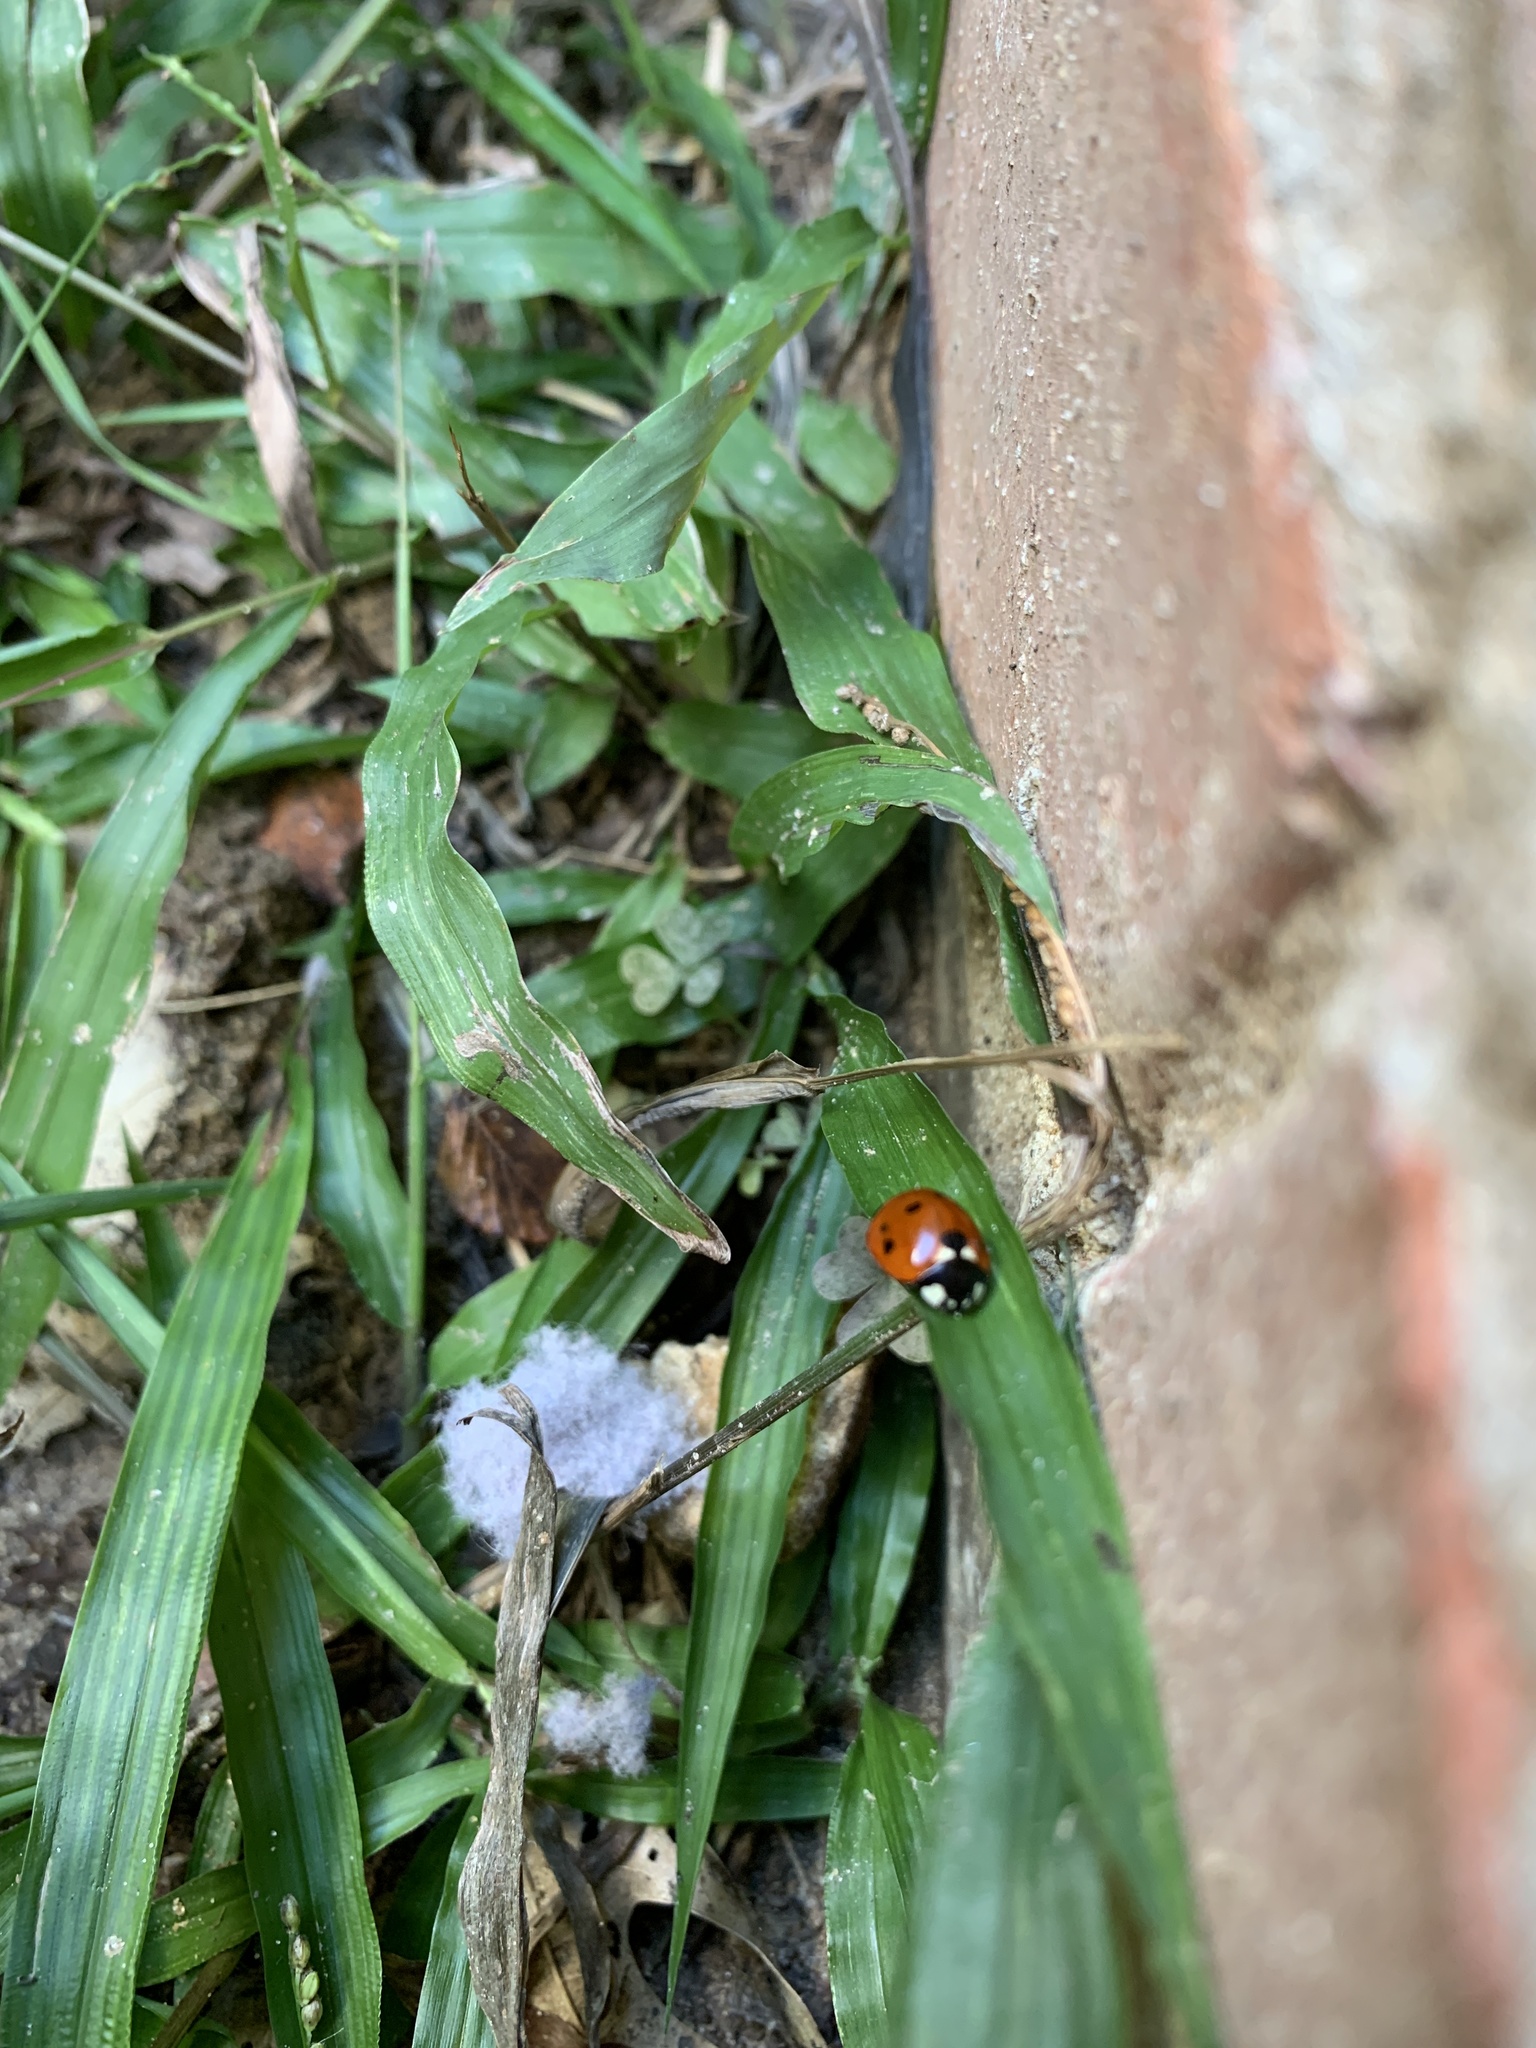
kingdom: Animalia
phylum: Arthropoda
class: Insecta
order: Coleoptera
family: Coccinellidae
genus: Coccinella
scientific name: Coccinella septempunctata
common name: Sevenspotted lady beetle
